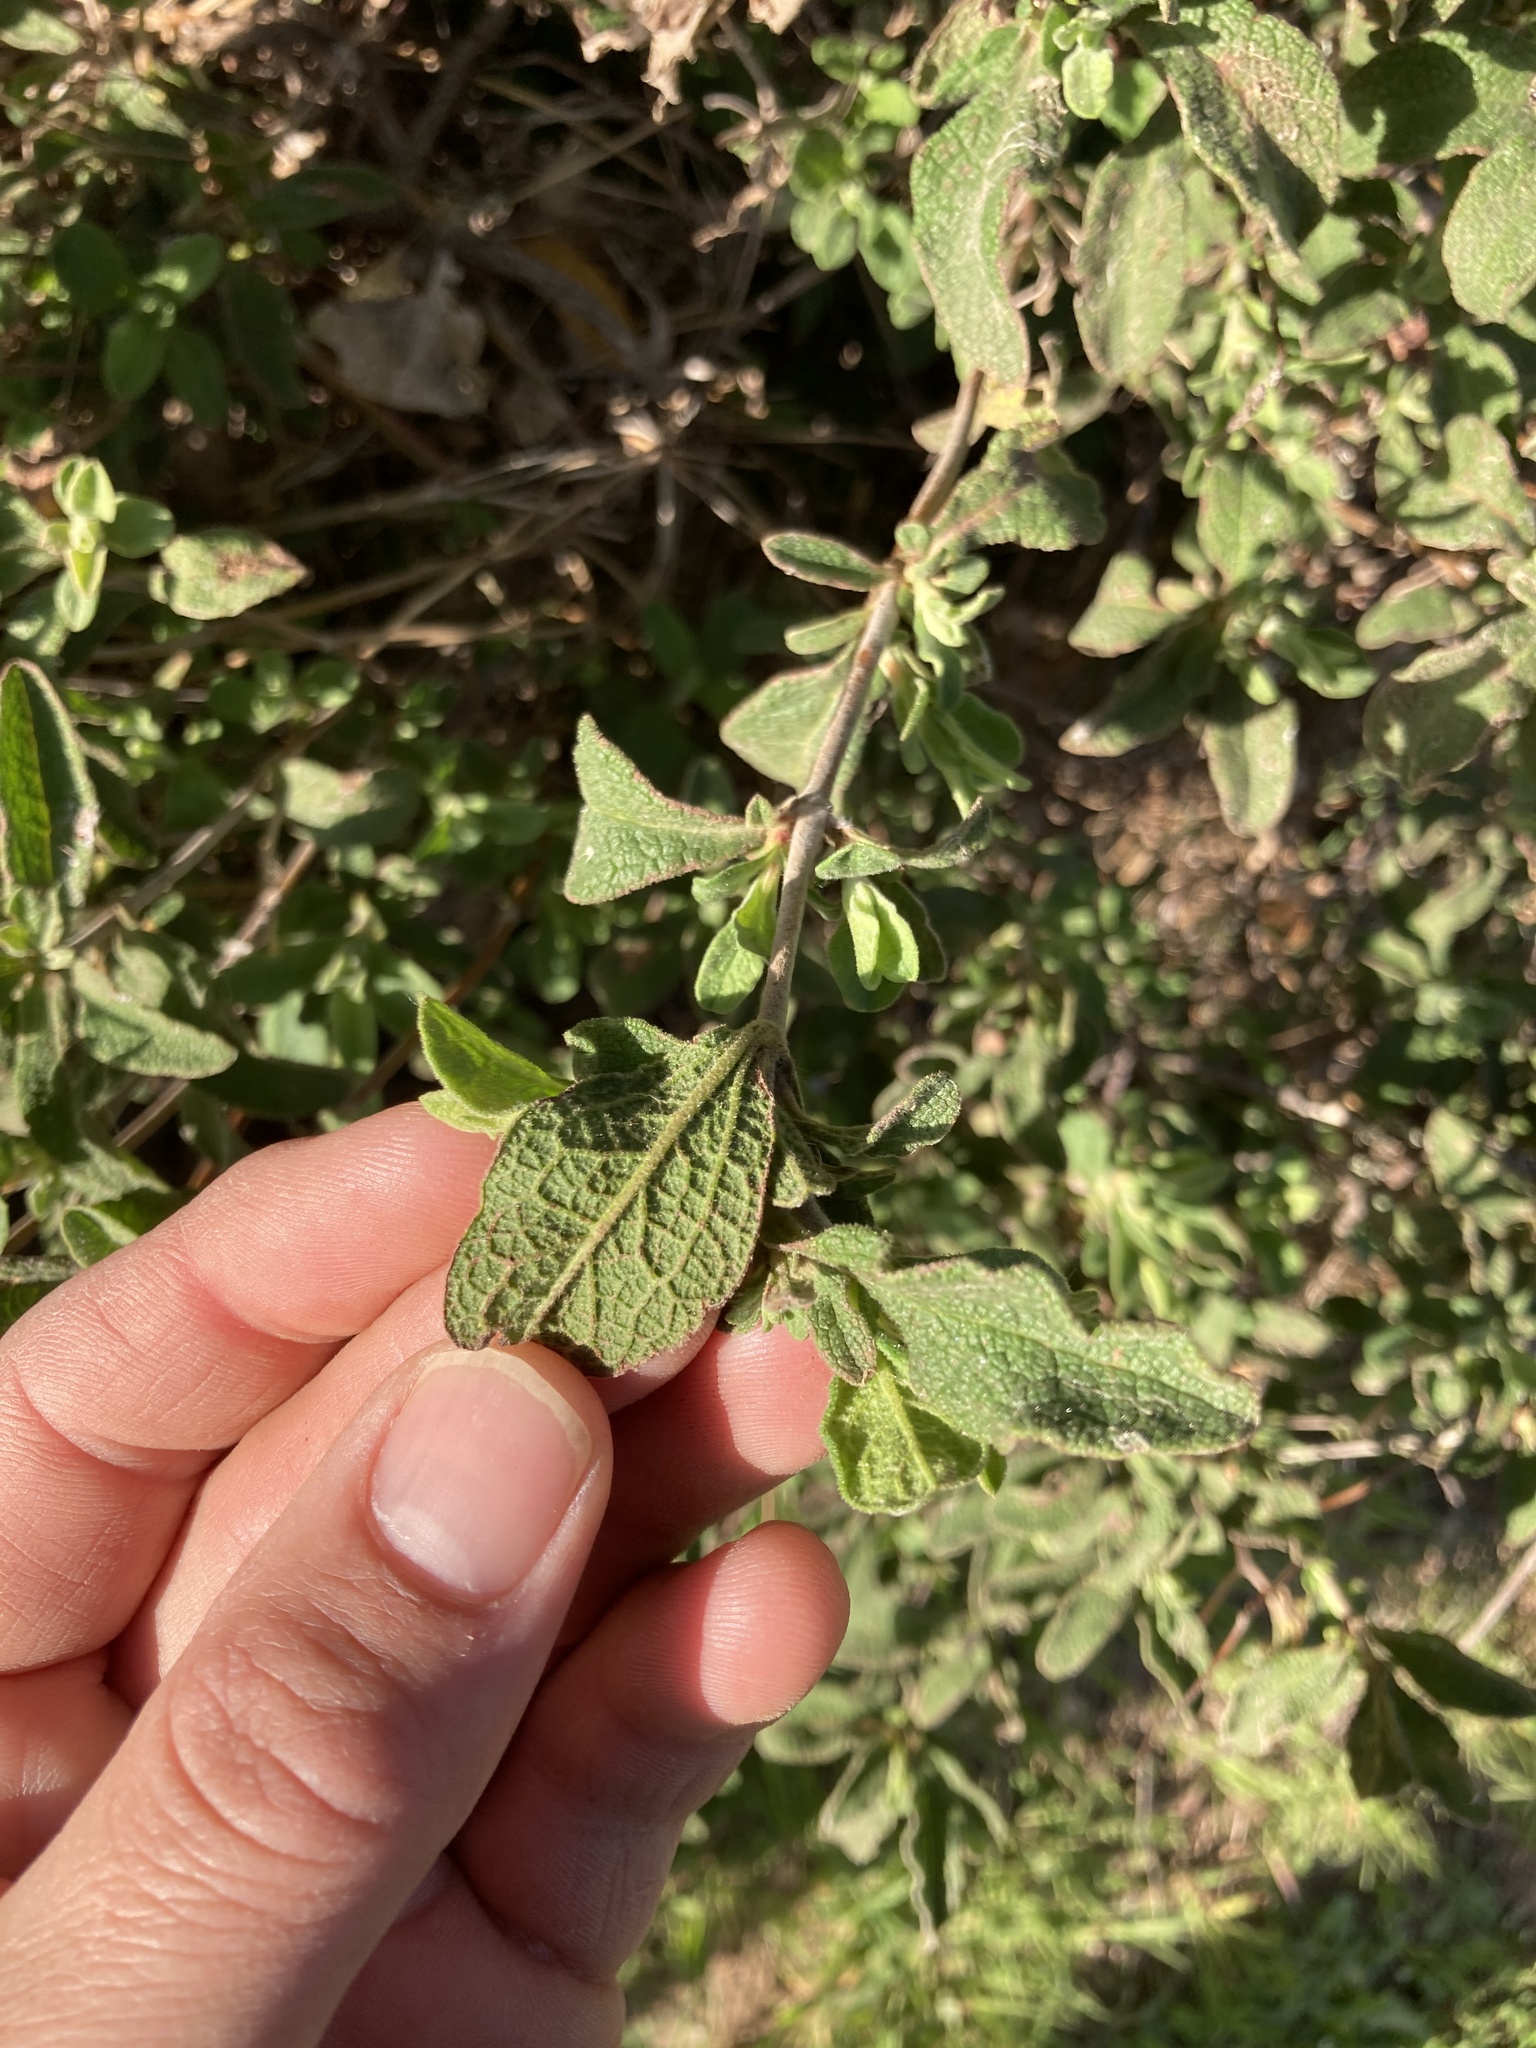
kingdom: Plantae
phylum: Tracheophyta
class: Magnoliopsida
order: Malvales
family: Cistaceae
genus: Cistus
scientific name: Cistus creticus
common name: Cretan rockrose
